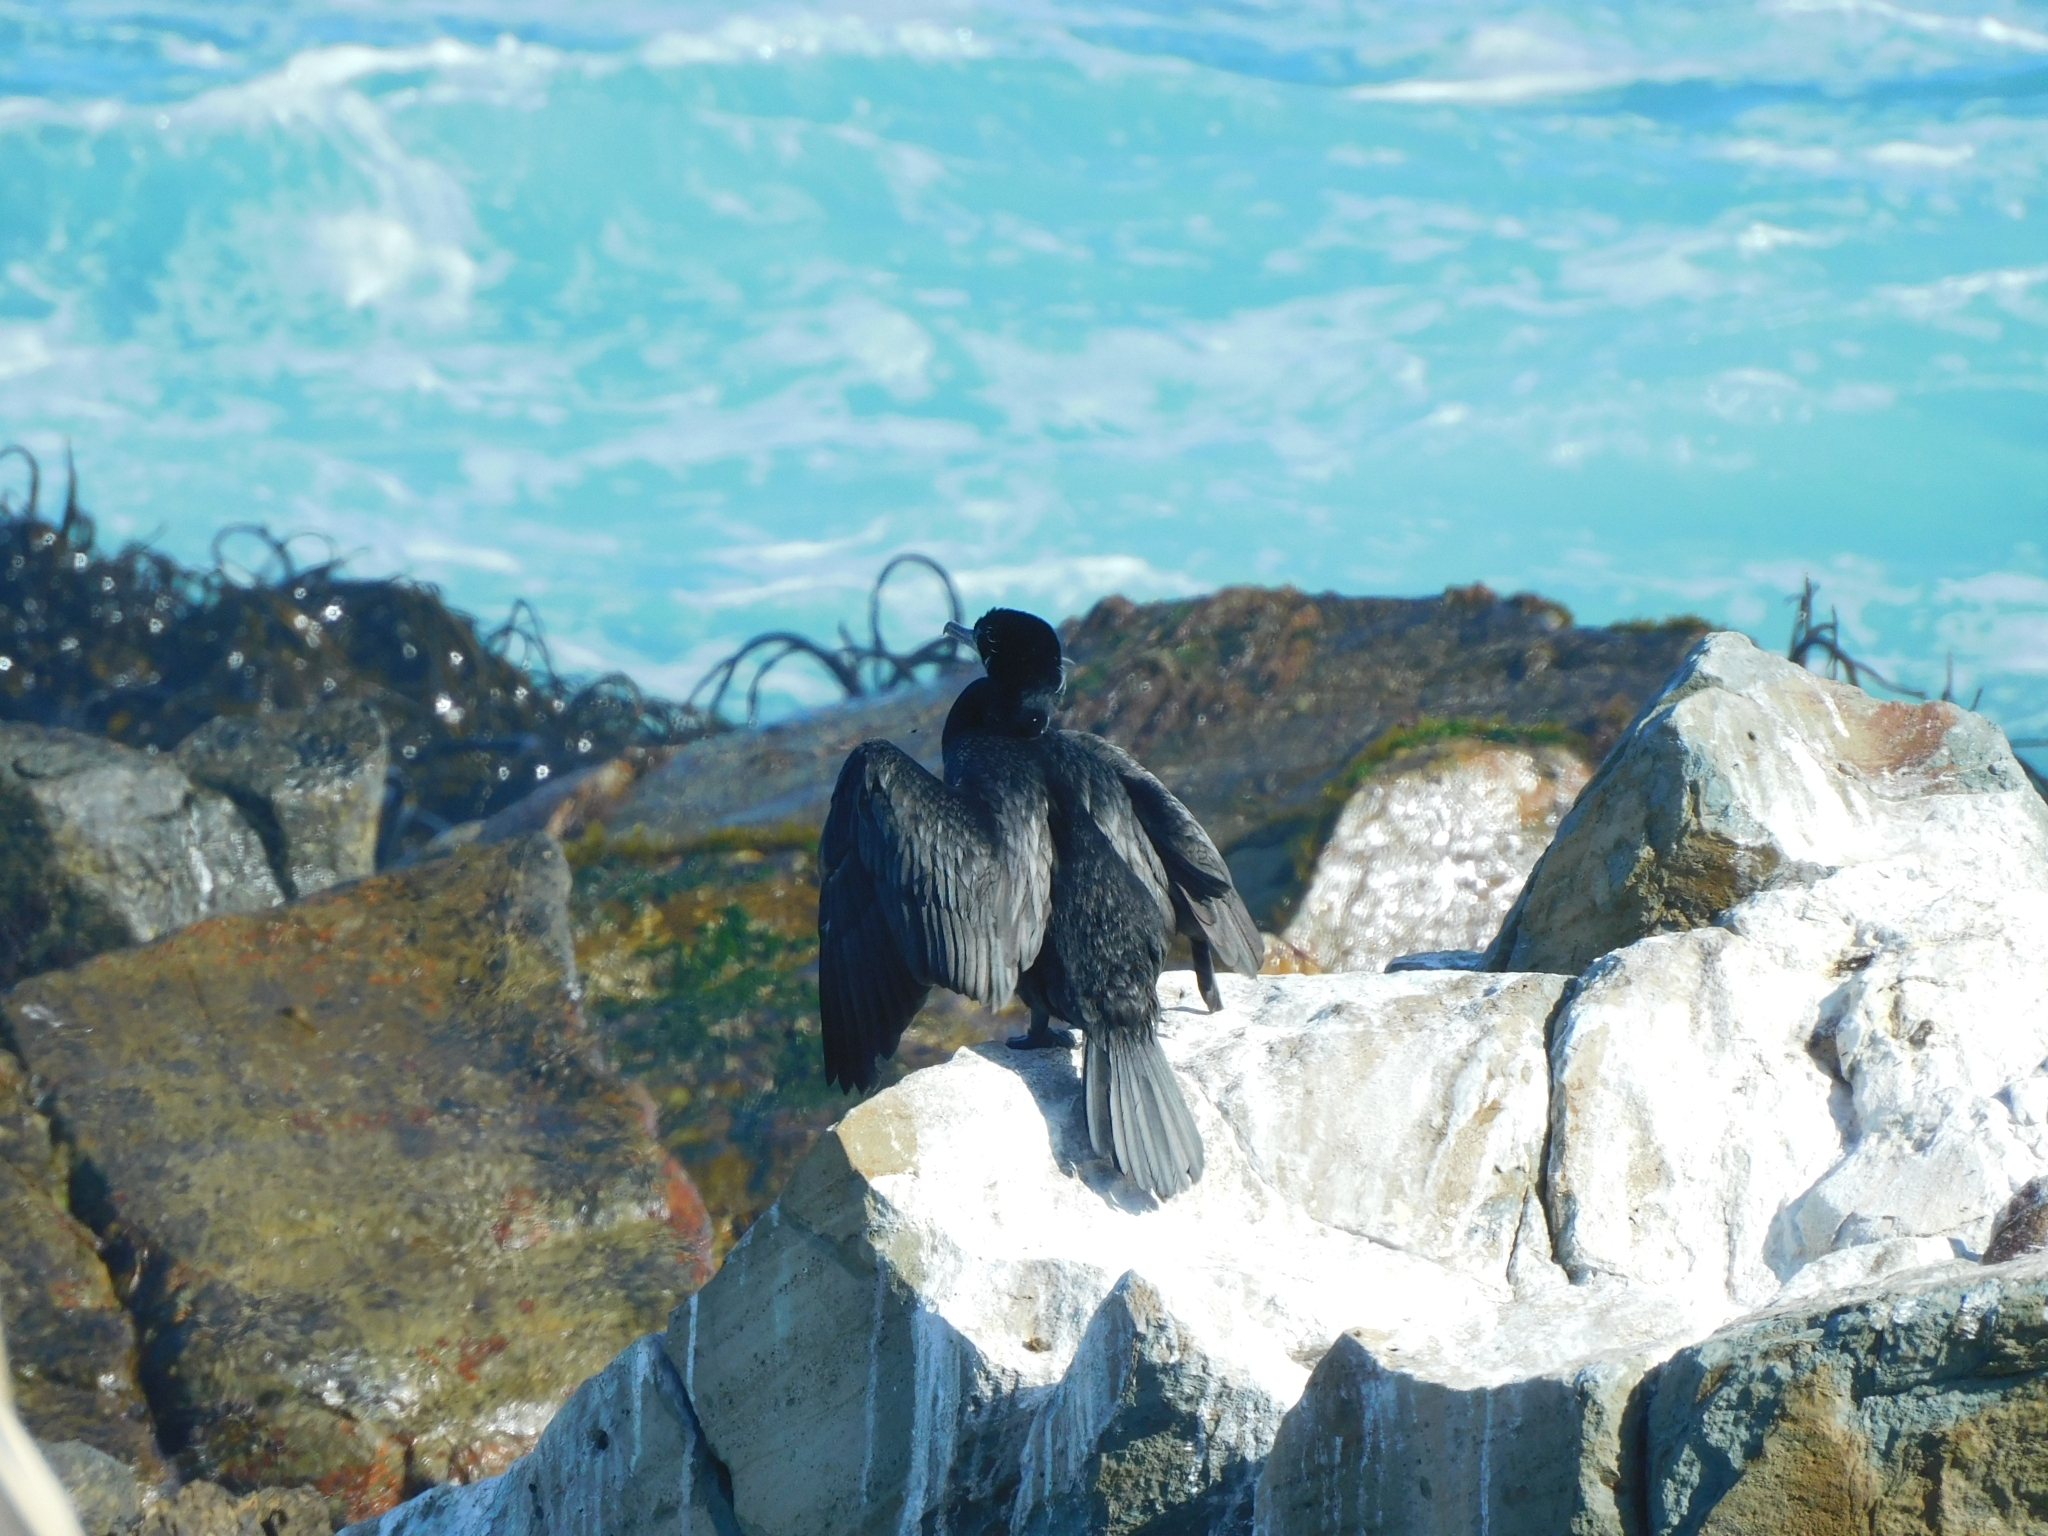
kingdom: Animalia
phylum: Chordata
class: Aves
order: Suliformes
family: Phalacrocoracidae
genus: Phalacrocorax
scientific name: Phalacrocorax brasilianus
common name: Neotropic cormorant
